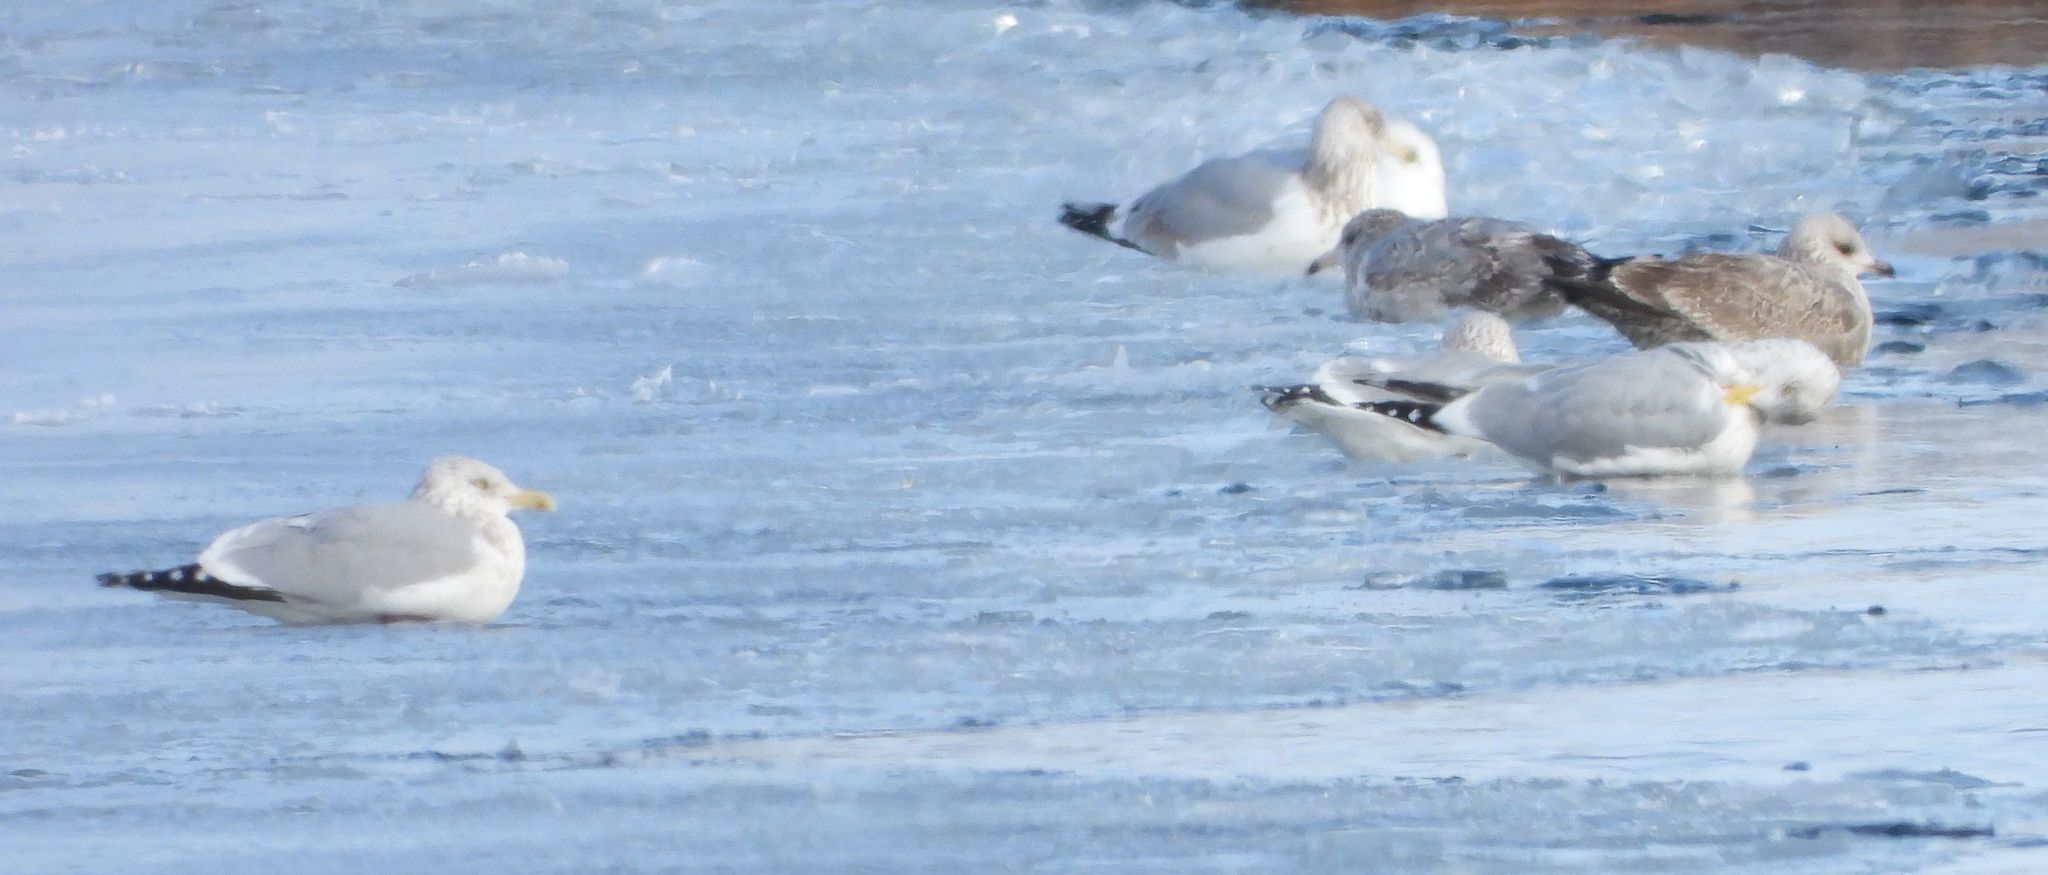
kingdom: Animalia
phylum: Chordata
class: Aves
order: Charadriiformes
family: Laridae
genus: Larus
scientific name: Larus argentatus
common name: Herring gull
